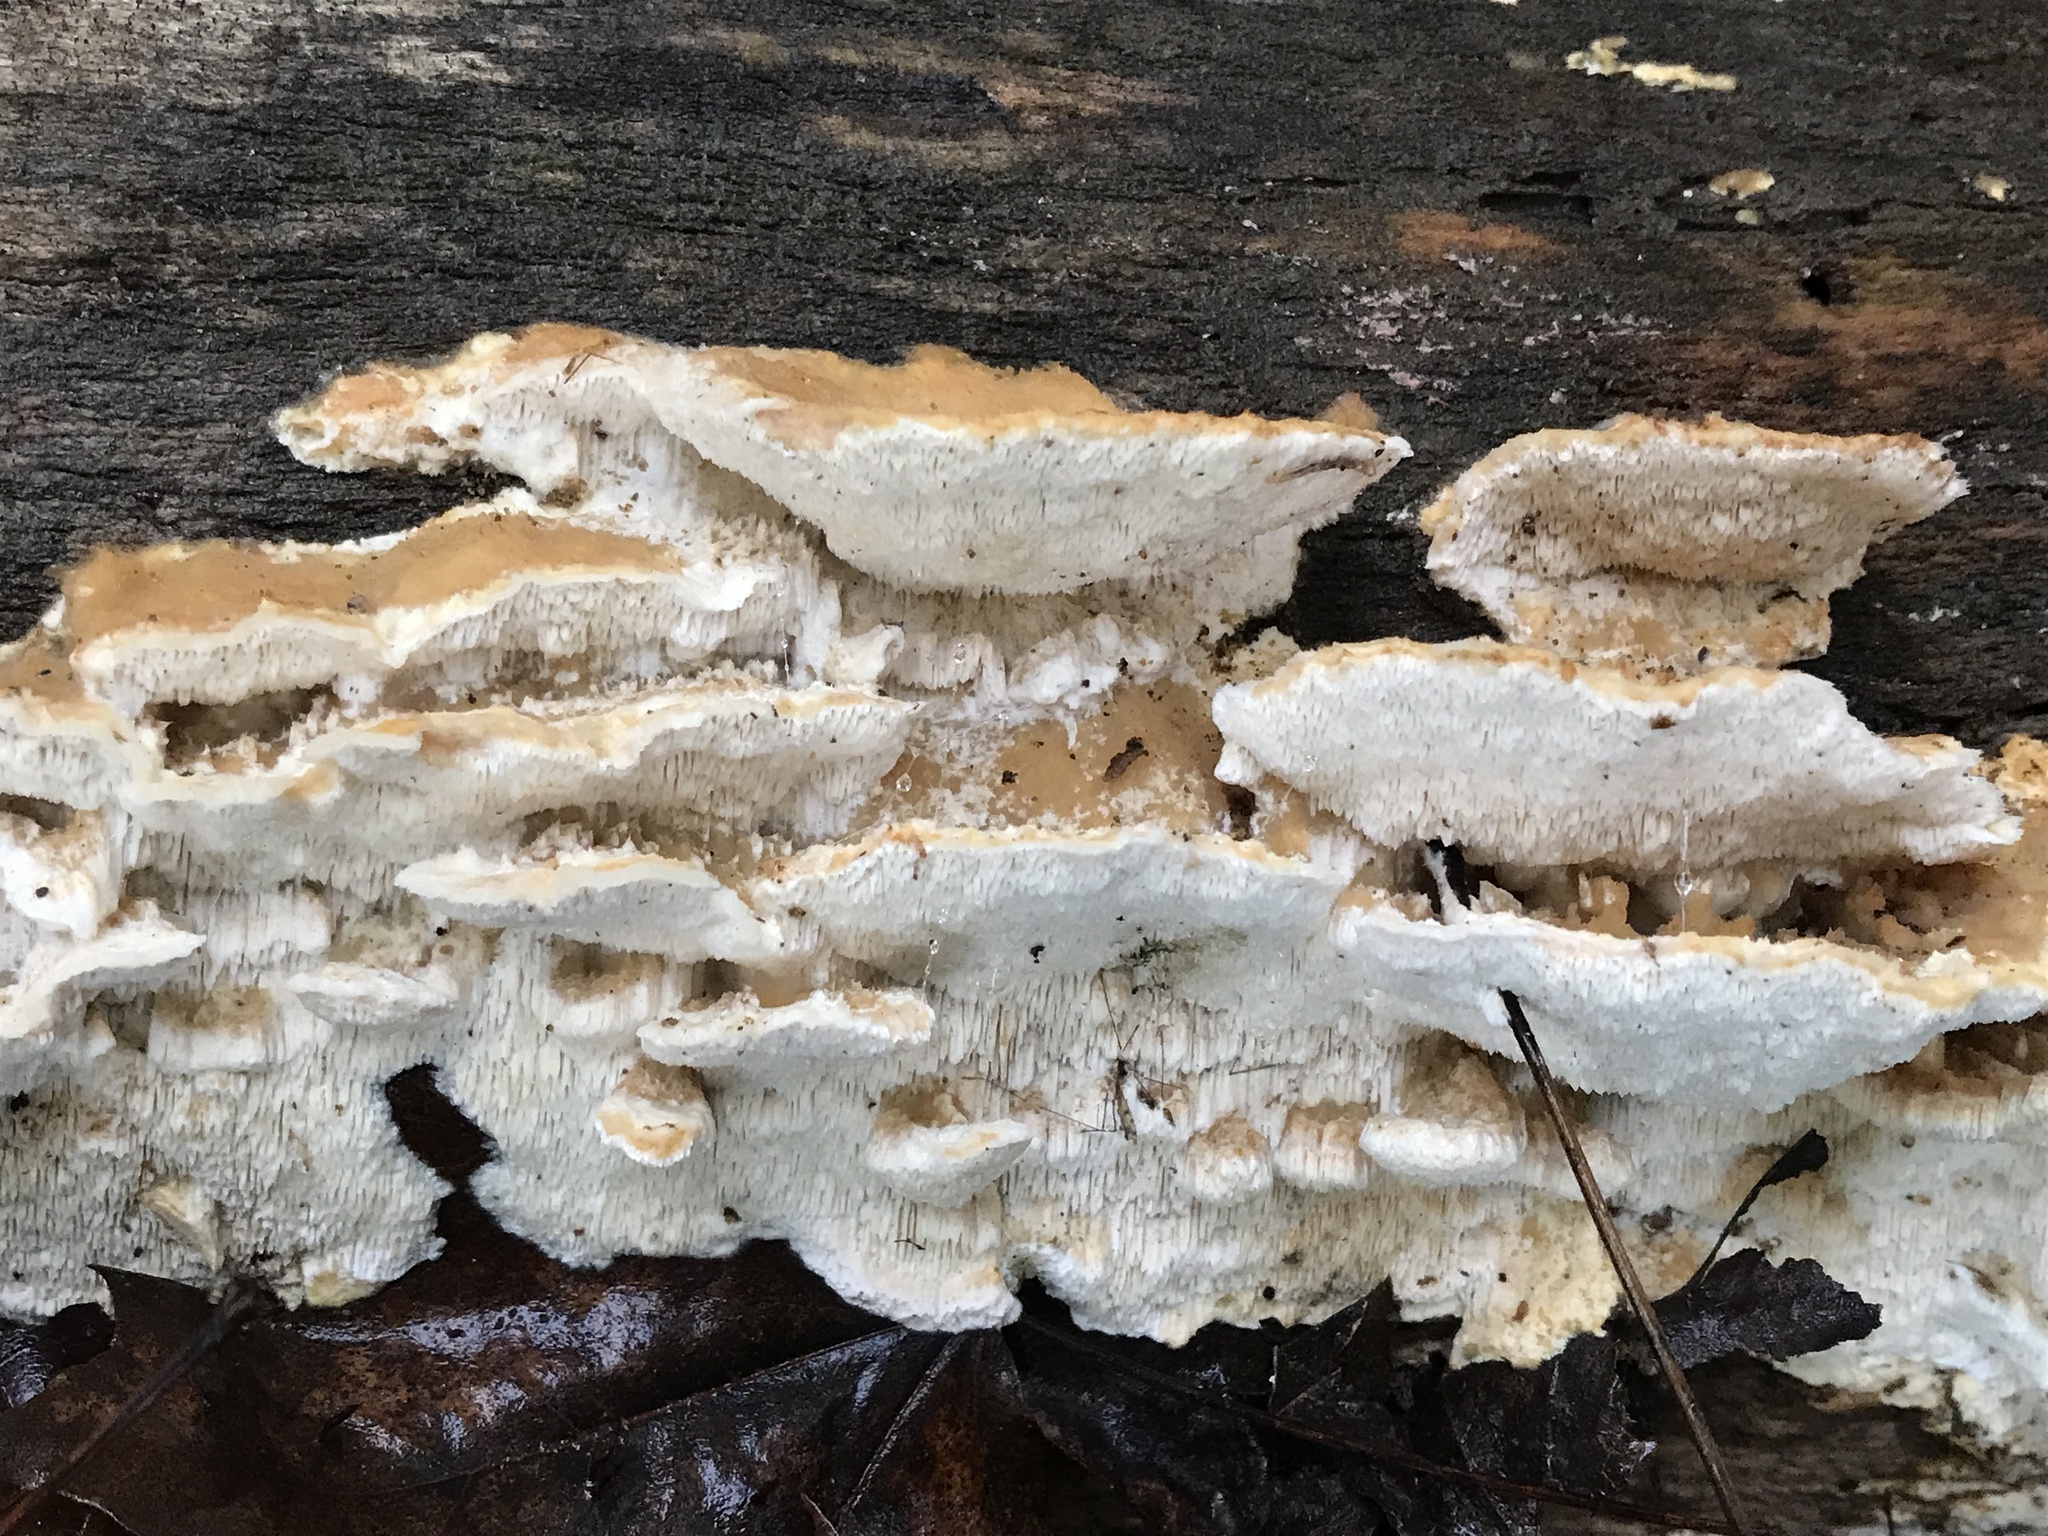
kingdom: Fungi
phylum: Basidiomycota
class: Agaricomycetes
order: Polyporales
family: Irpicaceae
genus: Trametopsis
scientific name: Trametopsis cervina
